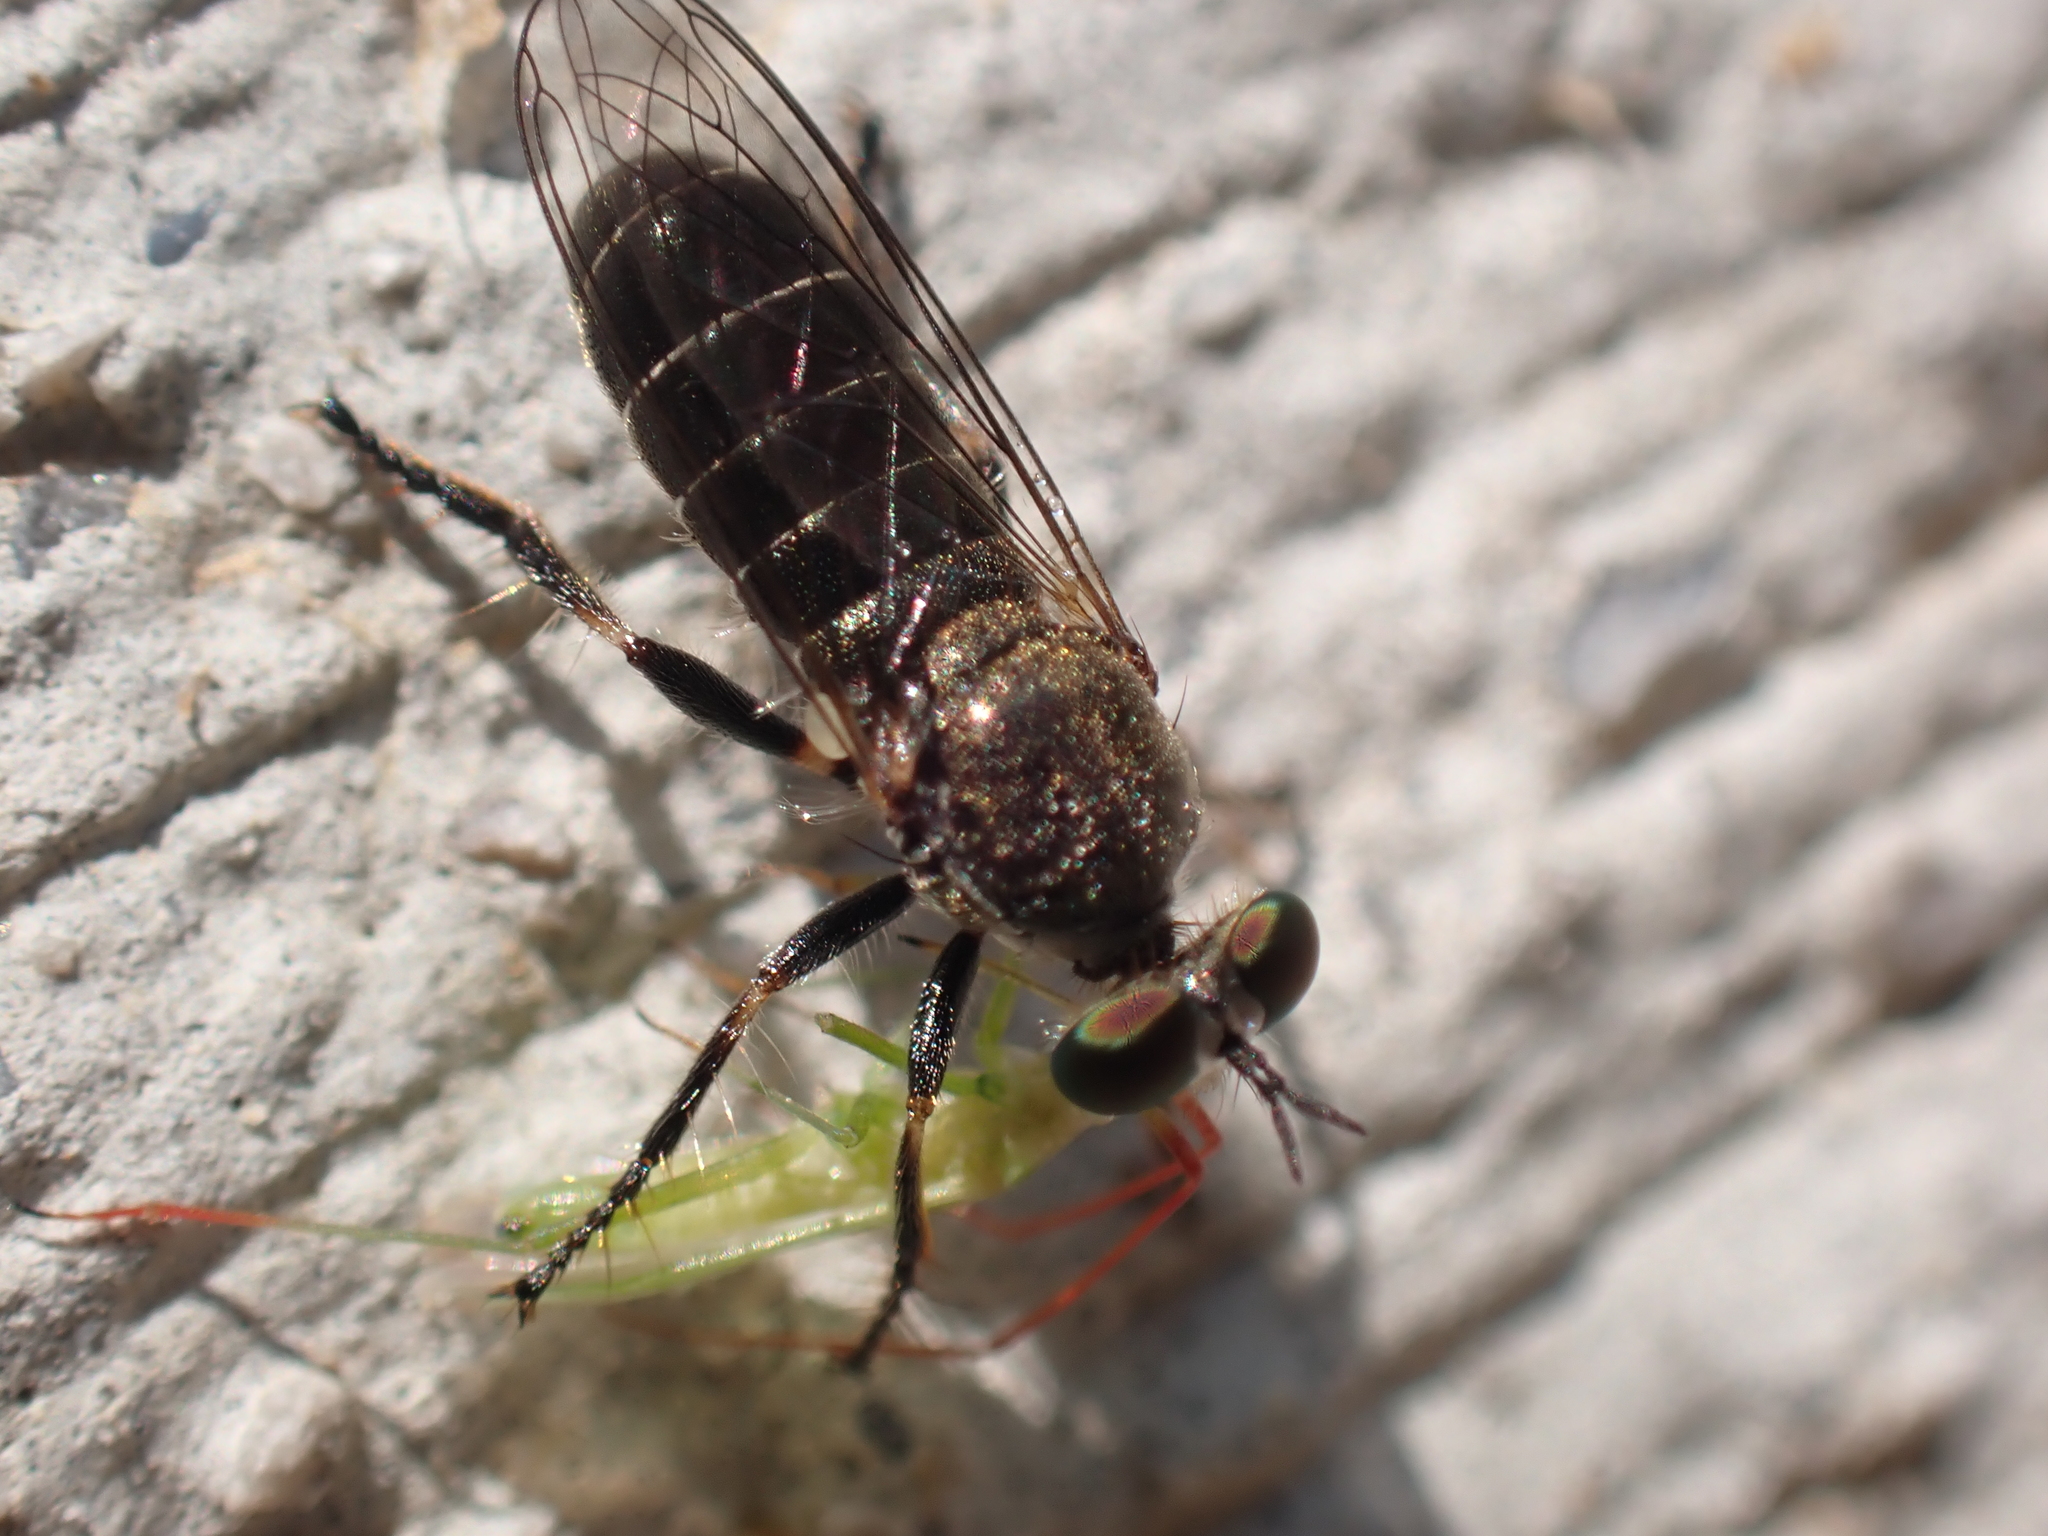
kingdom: Animalia
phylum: Arthropoda
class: Insecta
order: Diptera
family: Asilidae
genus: Atomosia
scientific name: Atomosia puella
